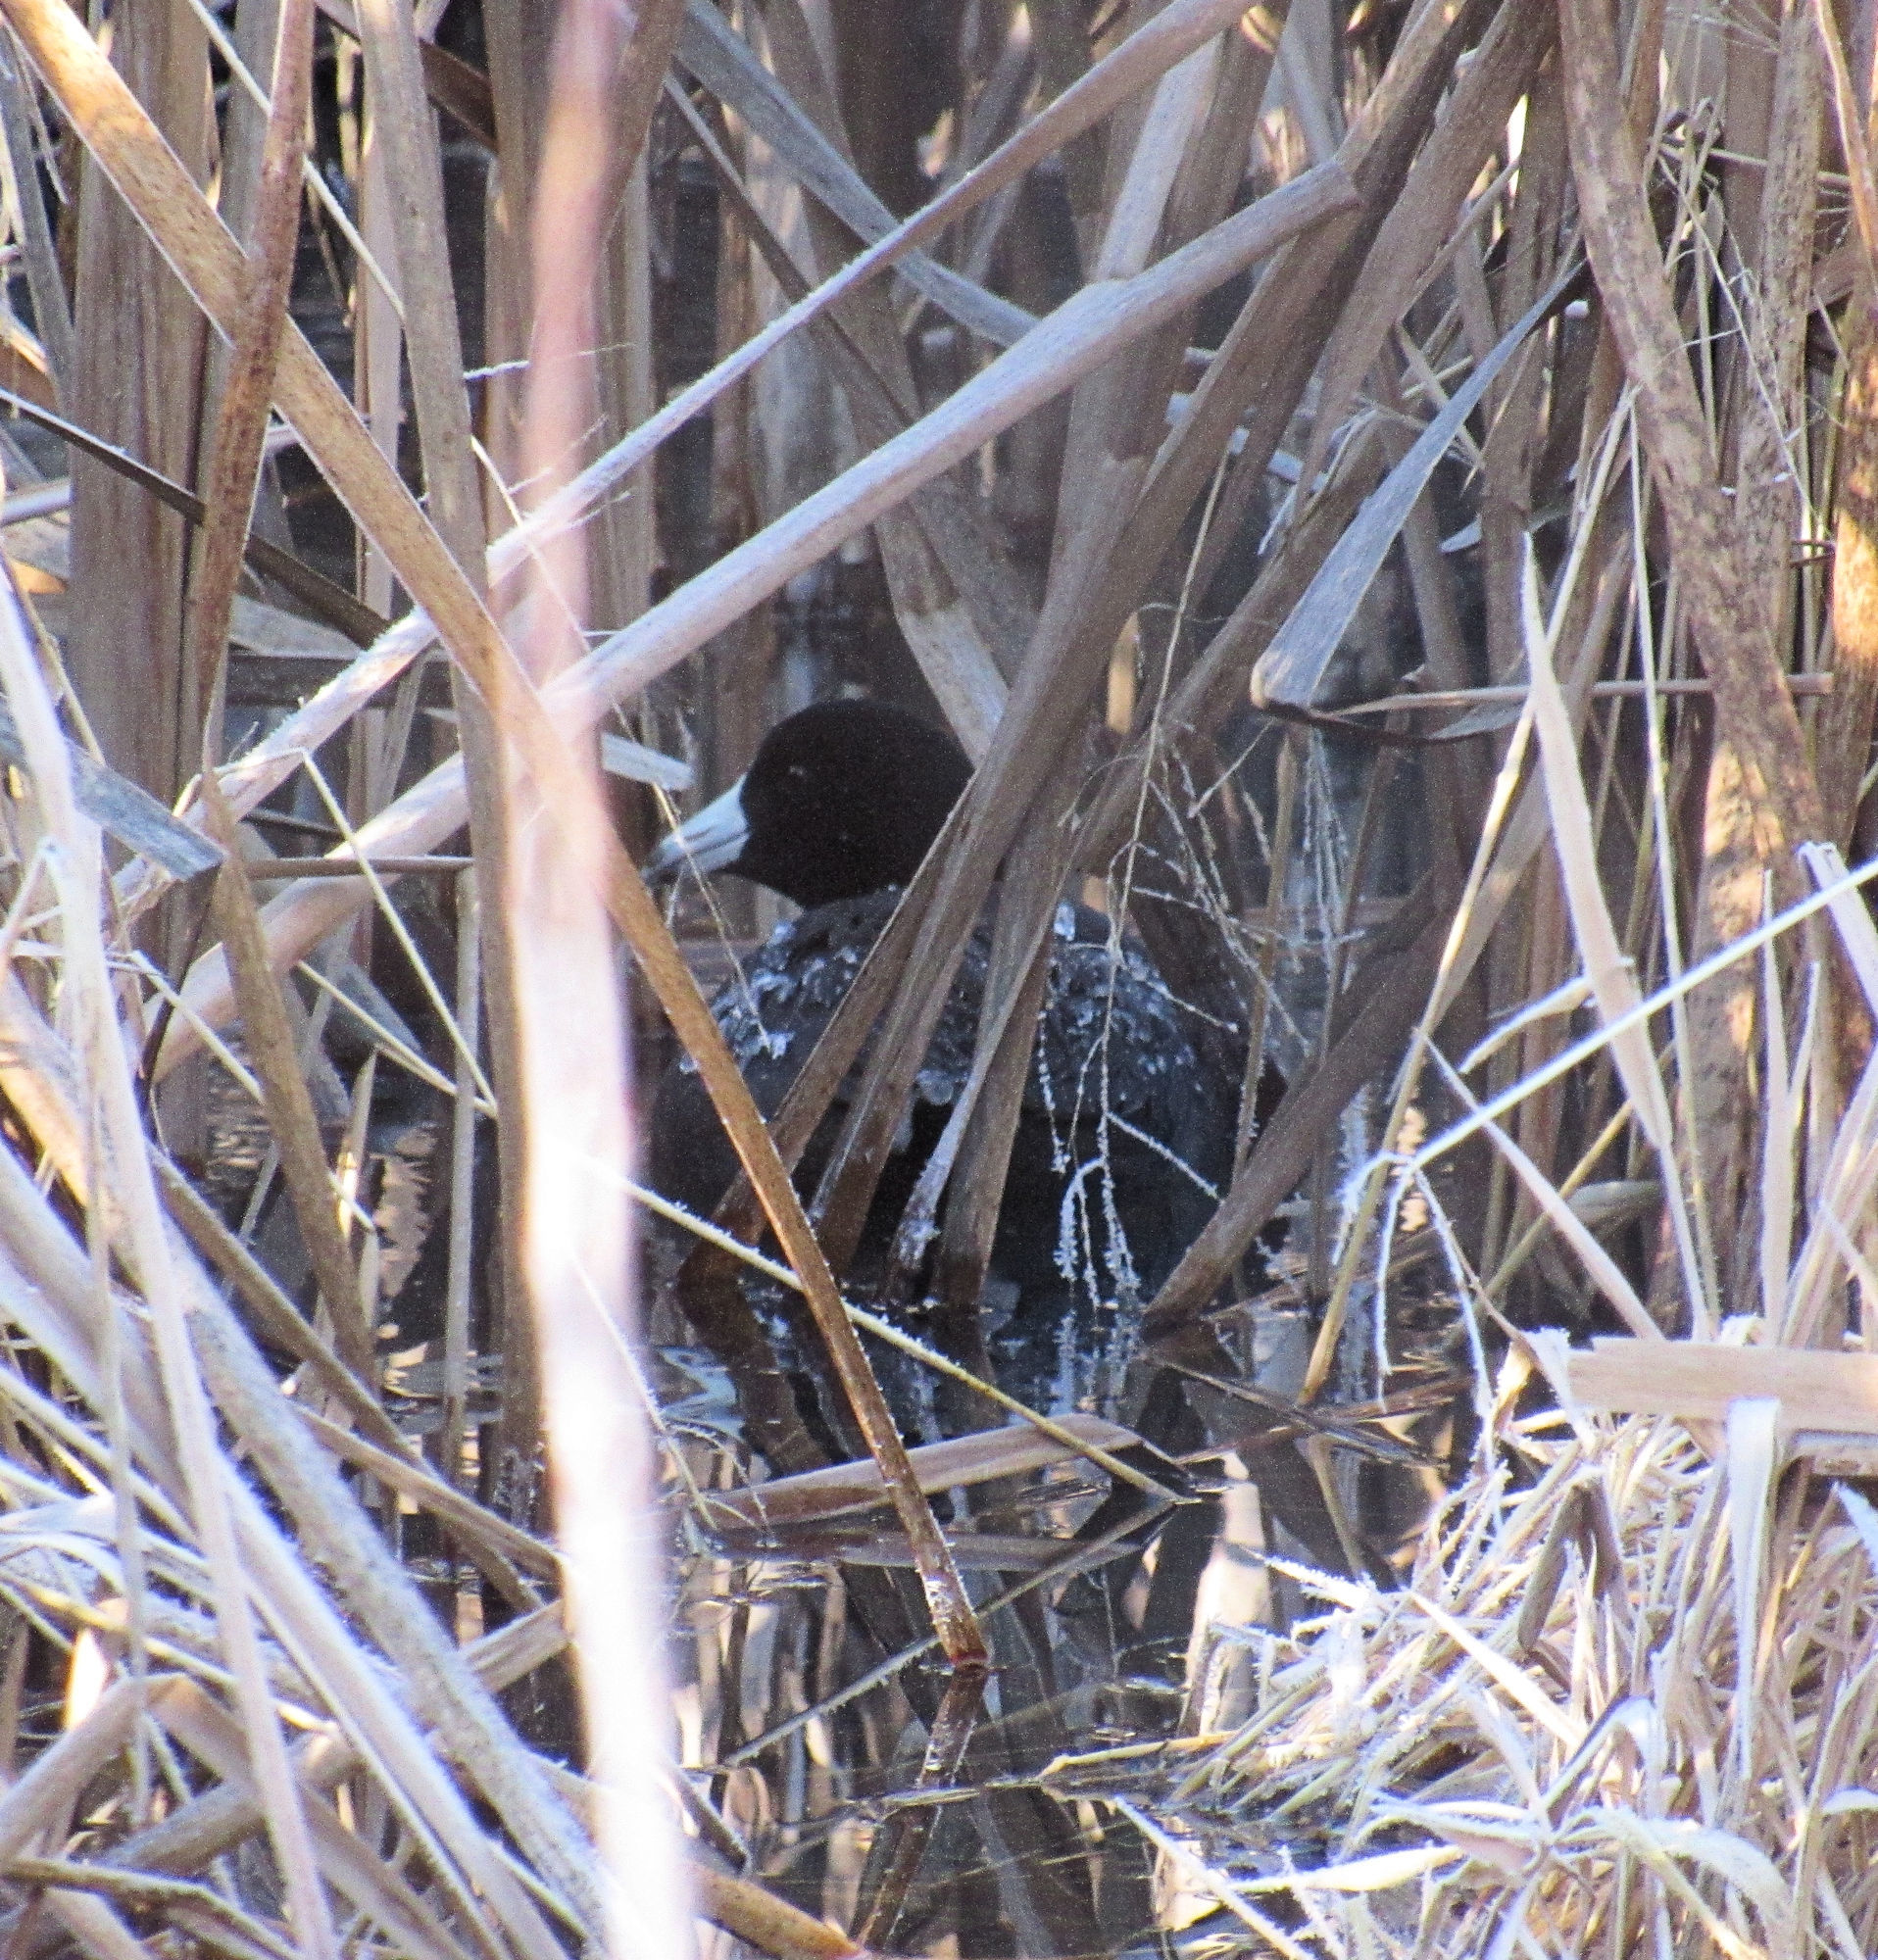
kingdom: Animalia
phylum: Chordata
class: Aves
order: Gruiformes
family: Rallidae
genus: Fulica
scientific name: Fulica americana
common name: American coot
